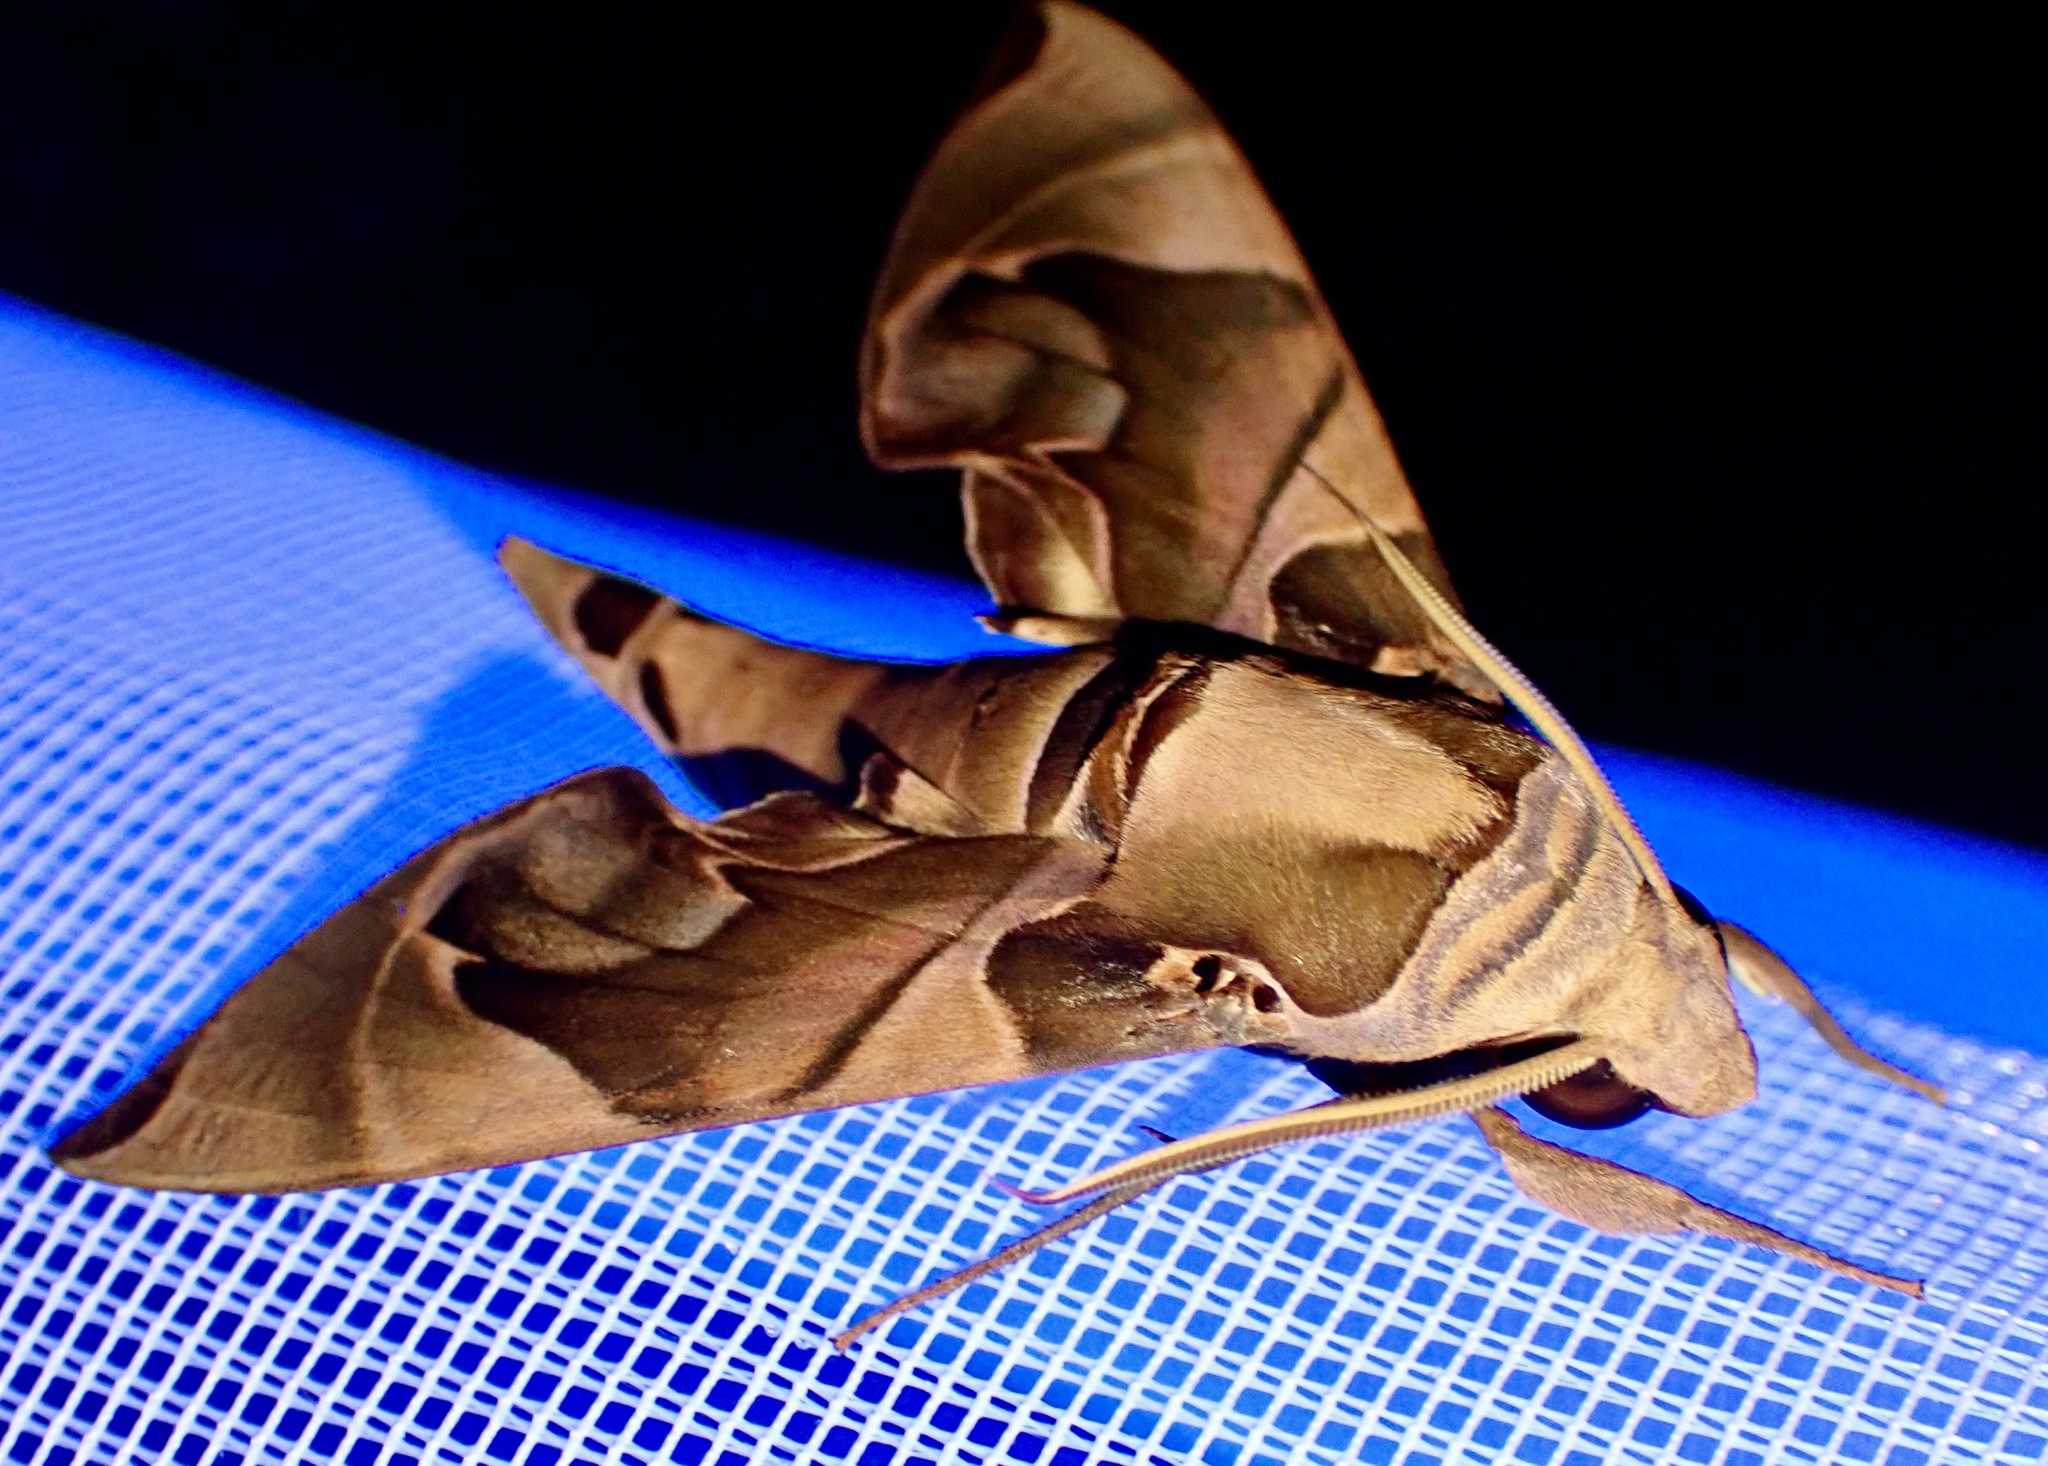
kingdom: Animalia
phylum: Arthropoda
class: Insecta
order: Lepidoptera
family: Sphingidae
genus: Daphnis
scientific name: Daphnis protrudens
